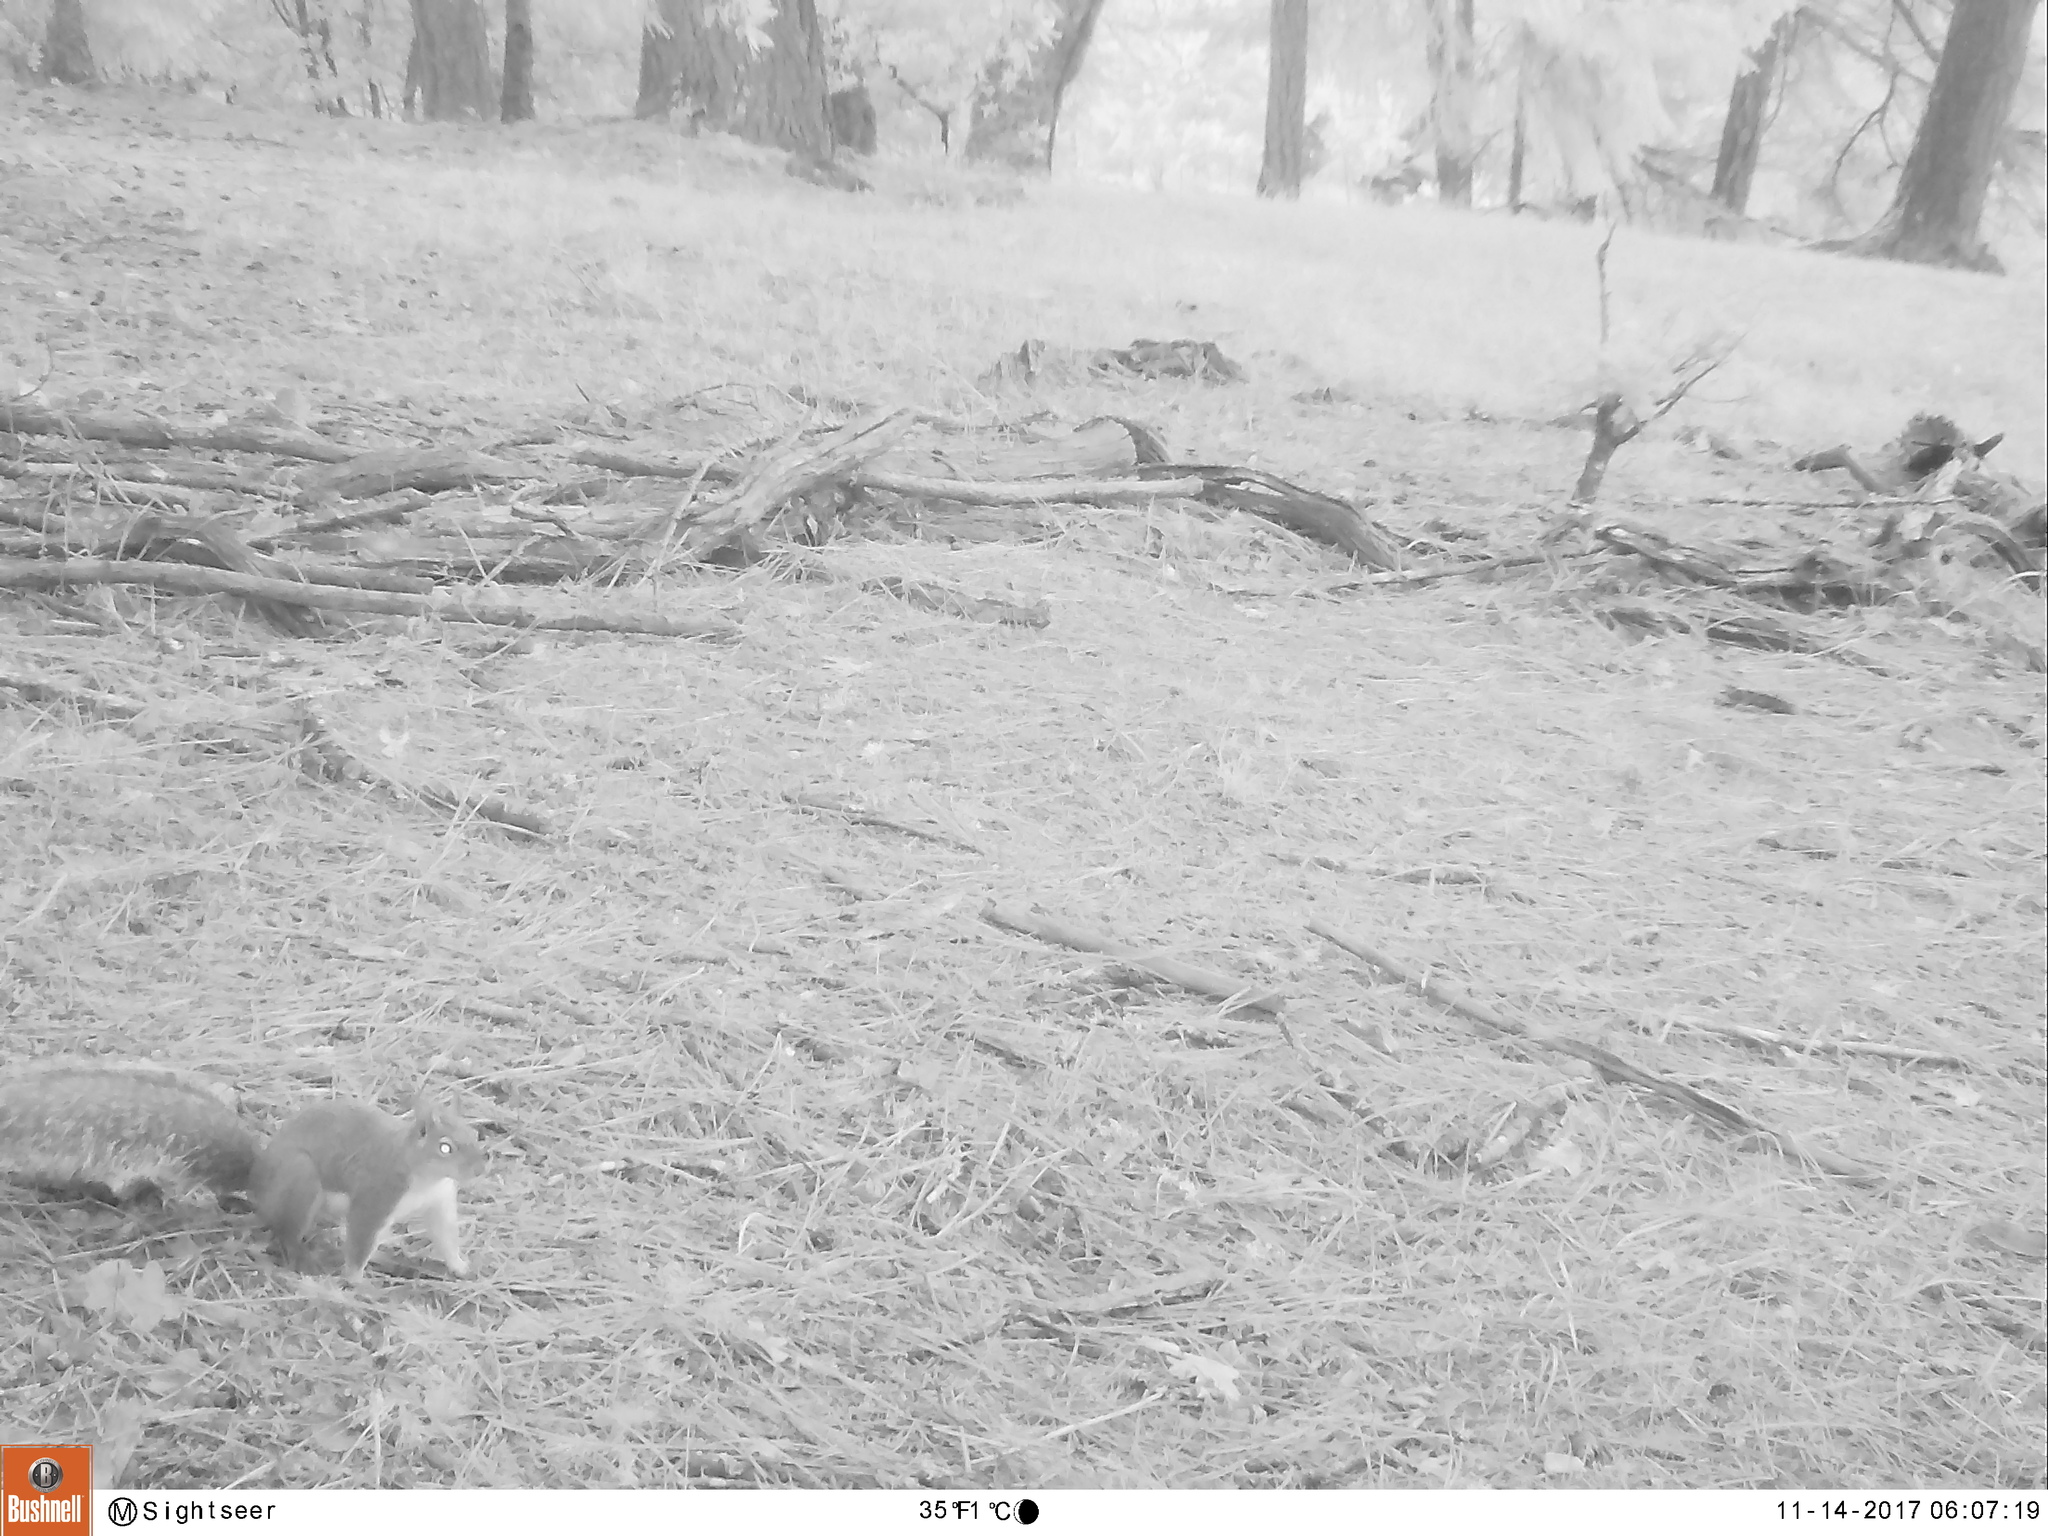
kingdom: Animalia
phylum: Chordata
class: Mammalia
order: Rodentia
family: Sciuridae
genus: Sciurus
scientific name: Sciurus griseus
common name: Western gray squirrel
